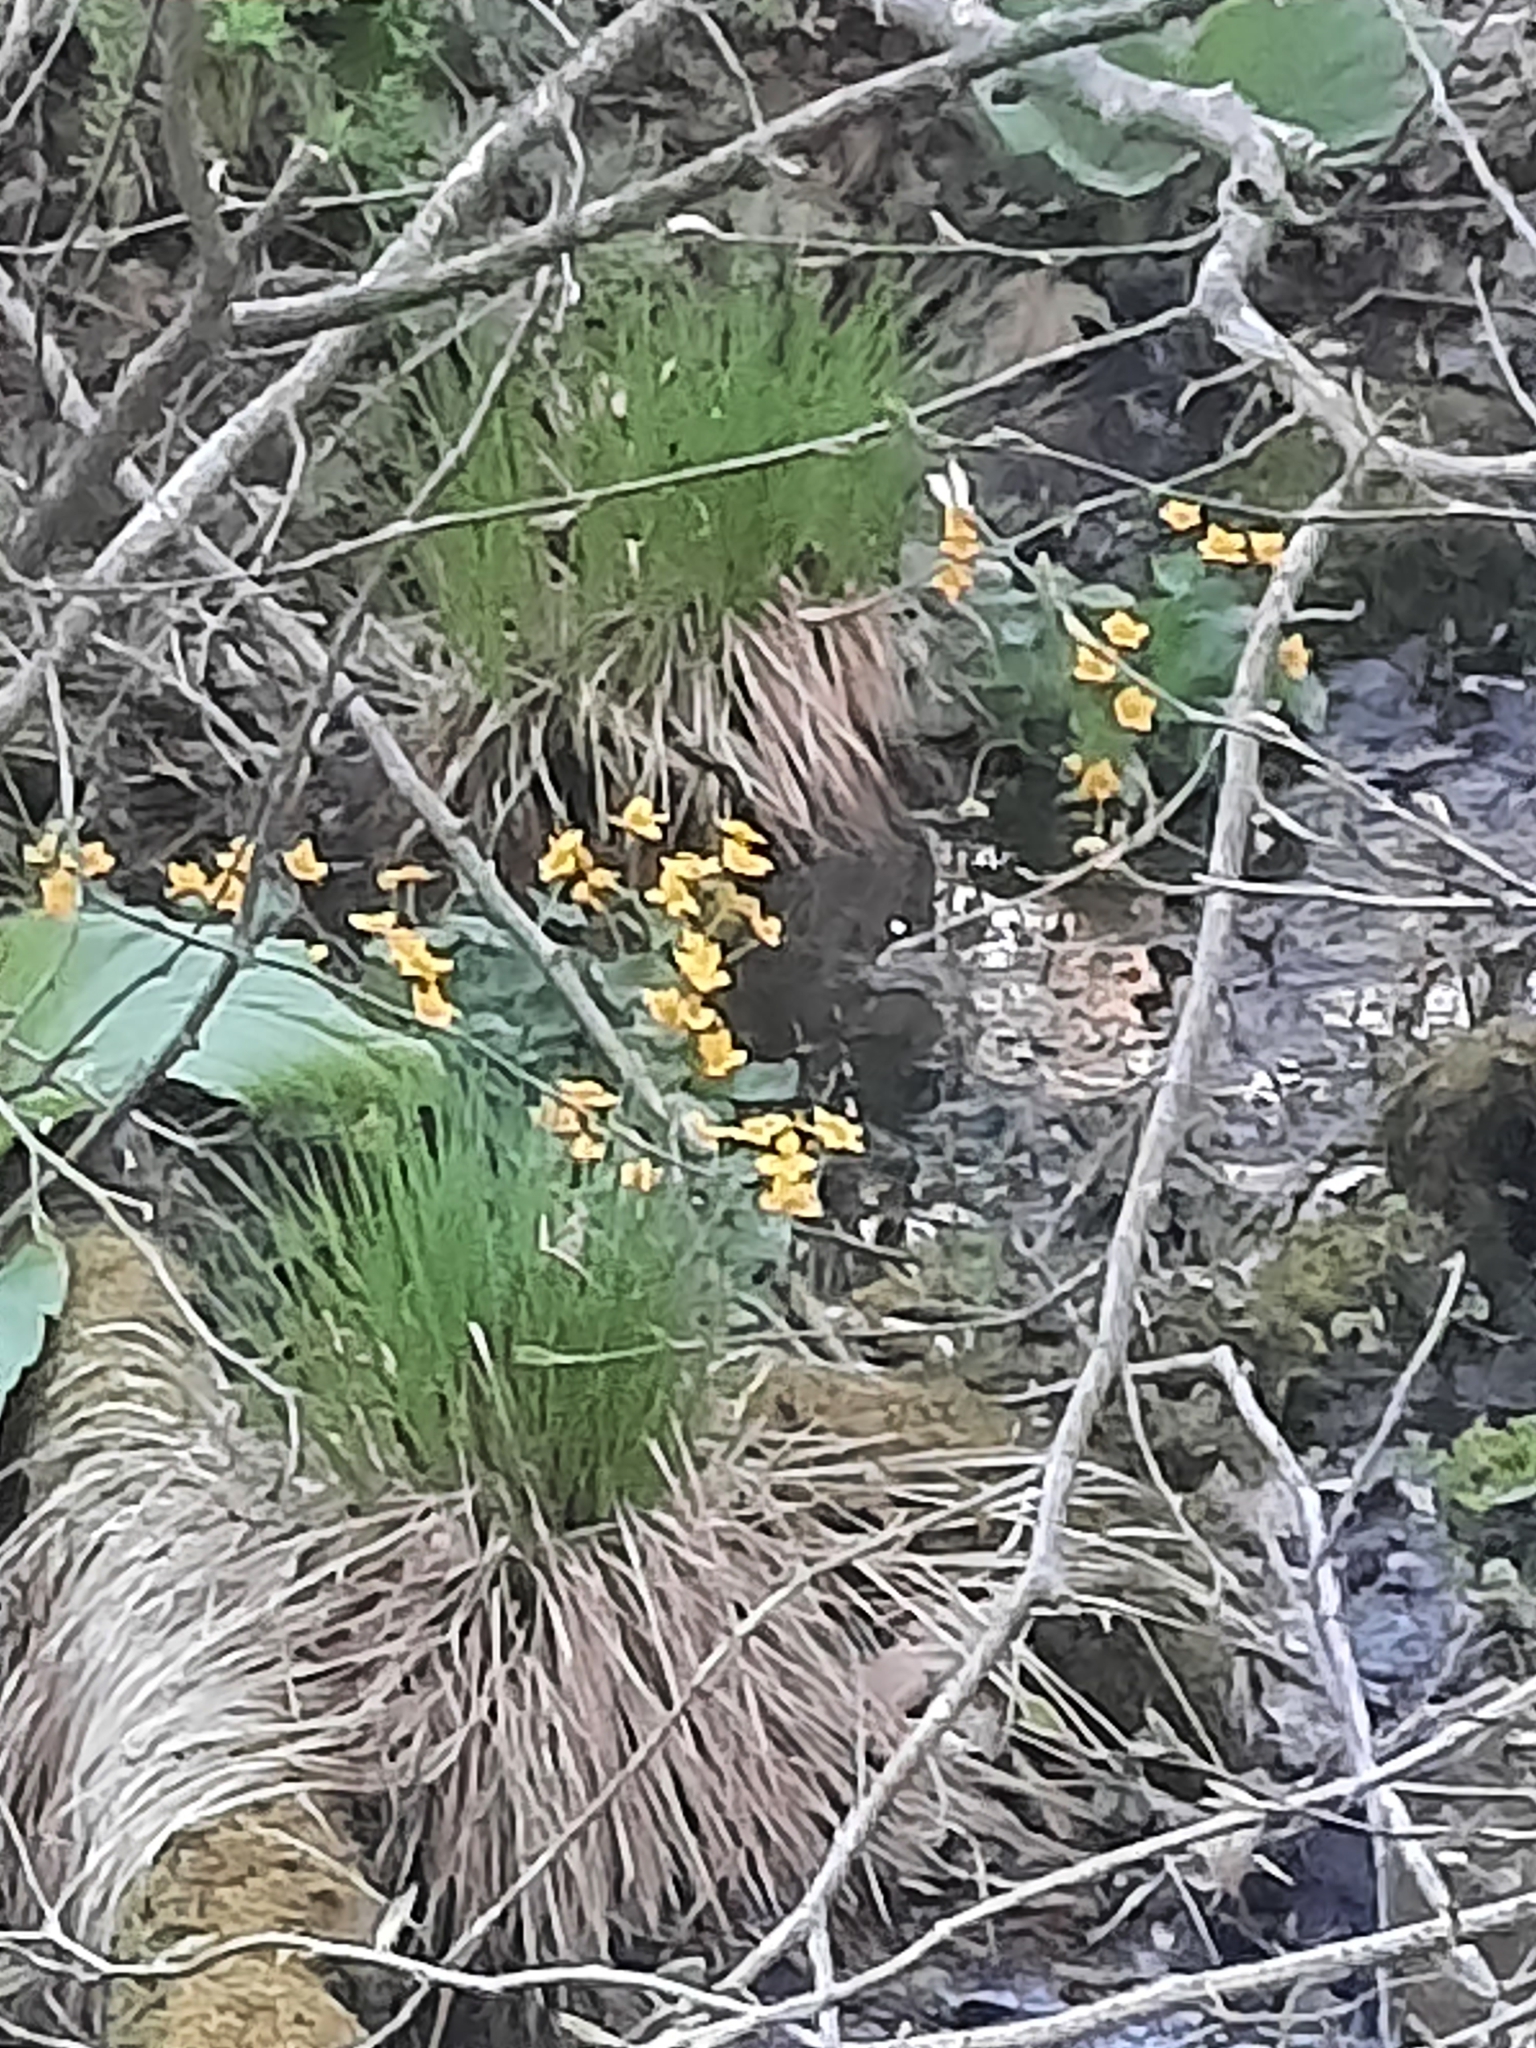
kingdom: Plantae
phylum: Tracheophyta
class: Magnoliopsida
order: Ranunculales
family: Ranunculaceae
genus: Caltha
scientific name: Caltha palustris
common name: Marsh marigold
